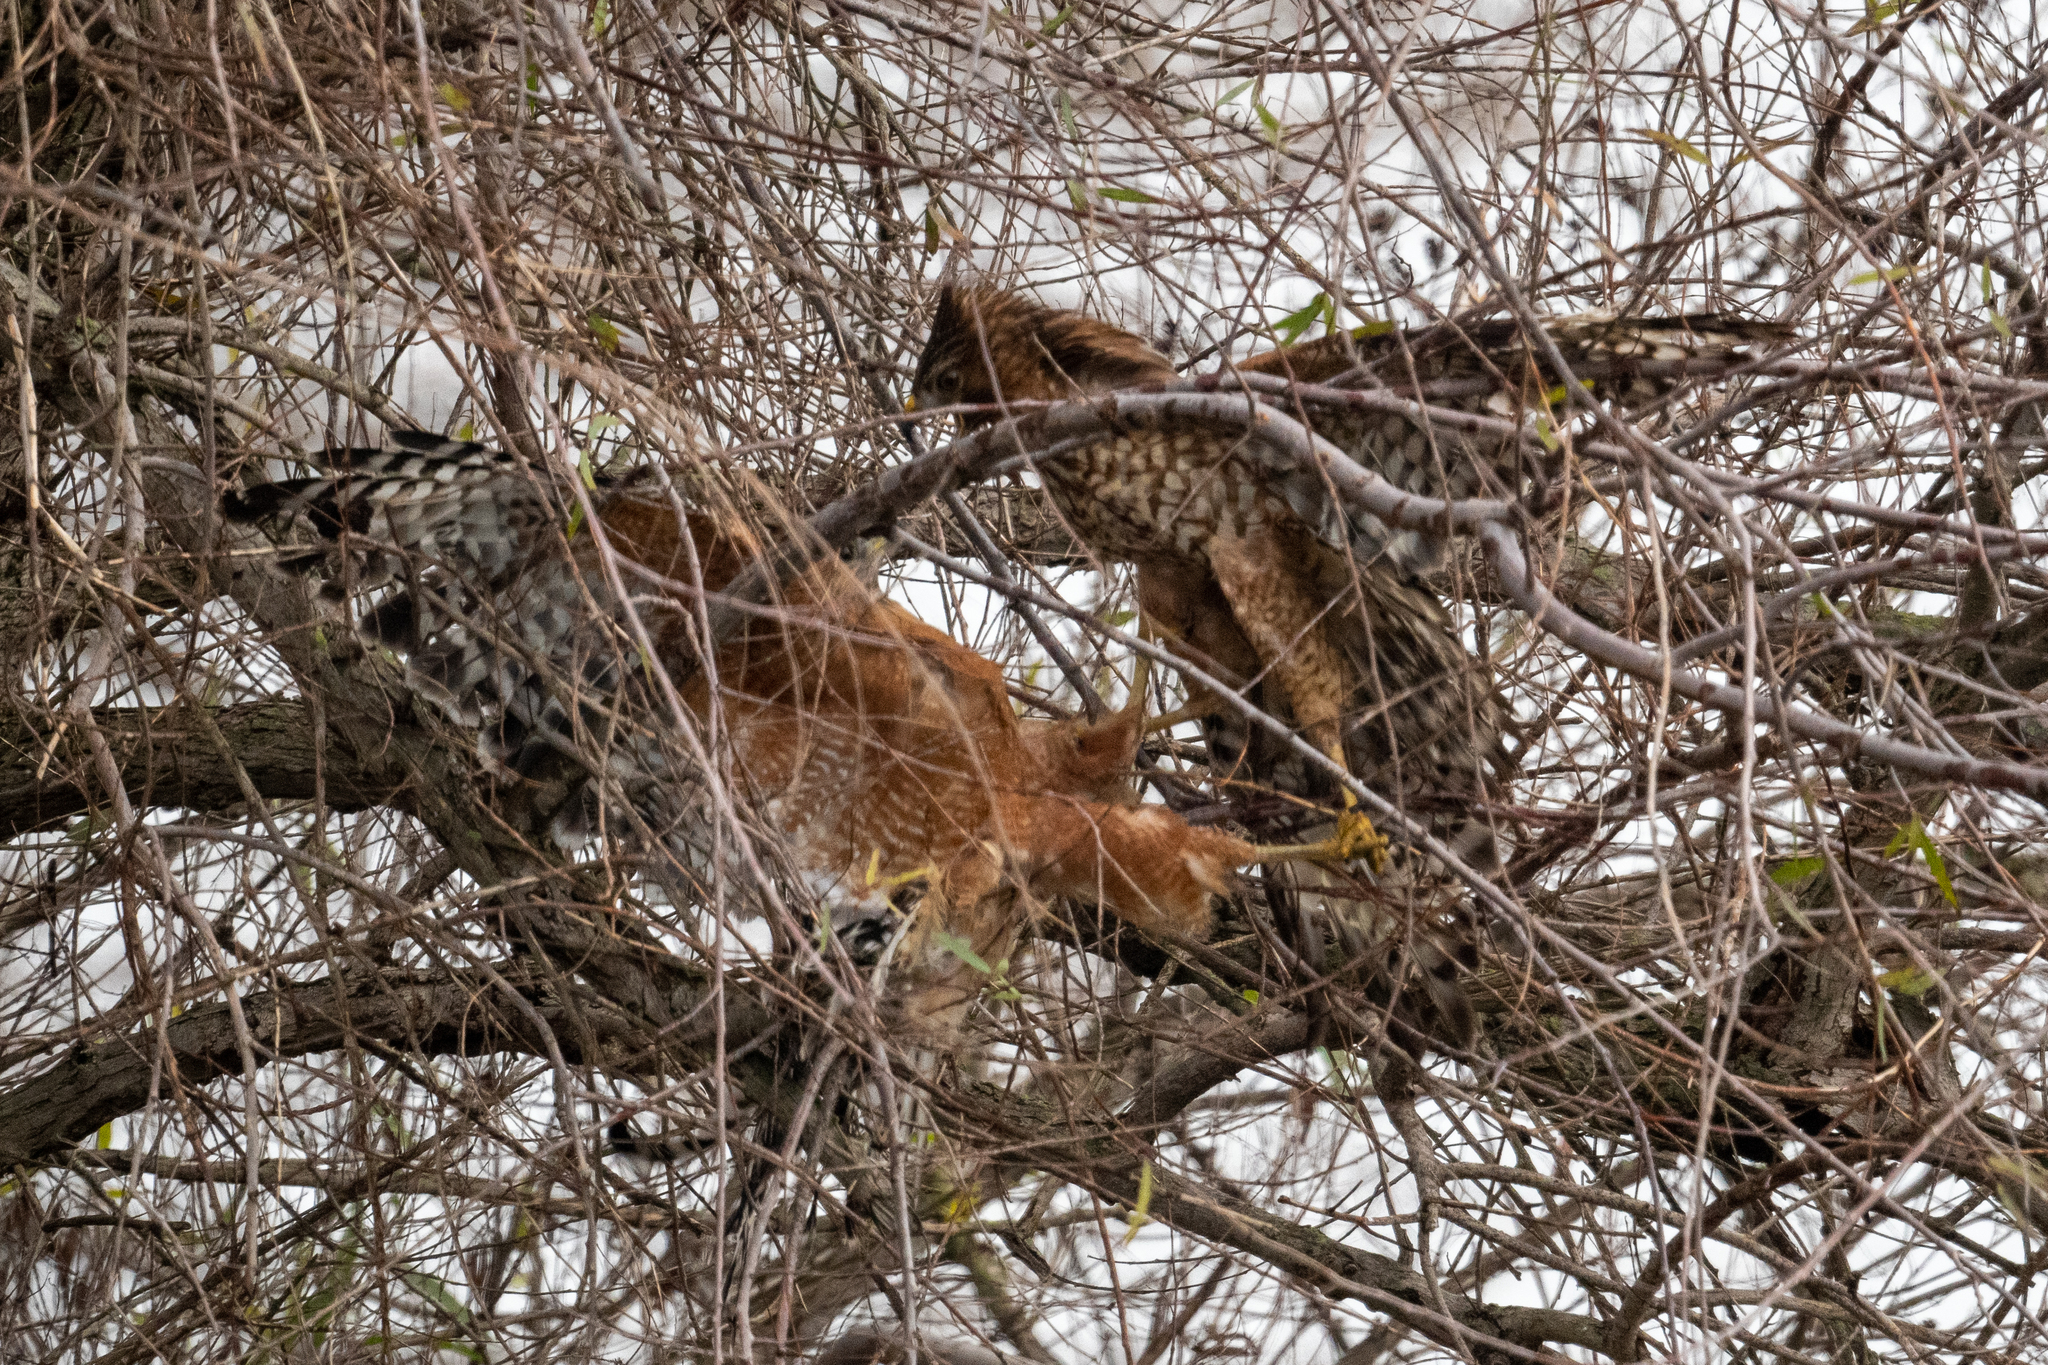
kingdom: Animalia
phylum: Chordata
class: Aves
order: Accipitriformes
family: Accipitridae
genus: Buteo
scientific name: Buteo lineatus
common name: Red-shouldered hawk
